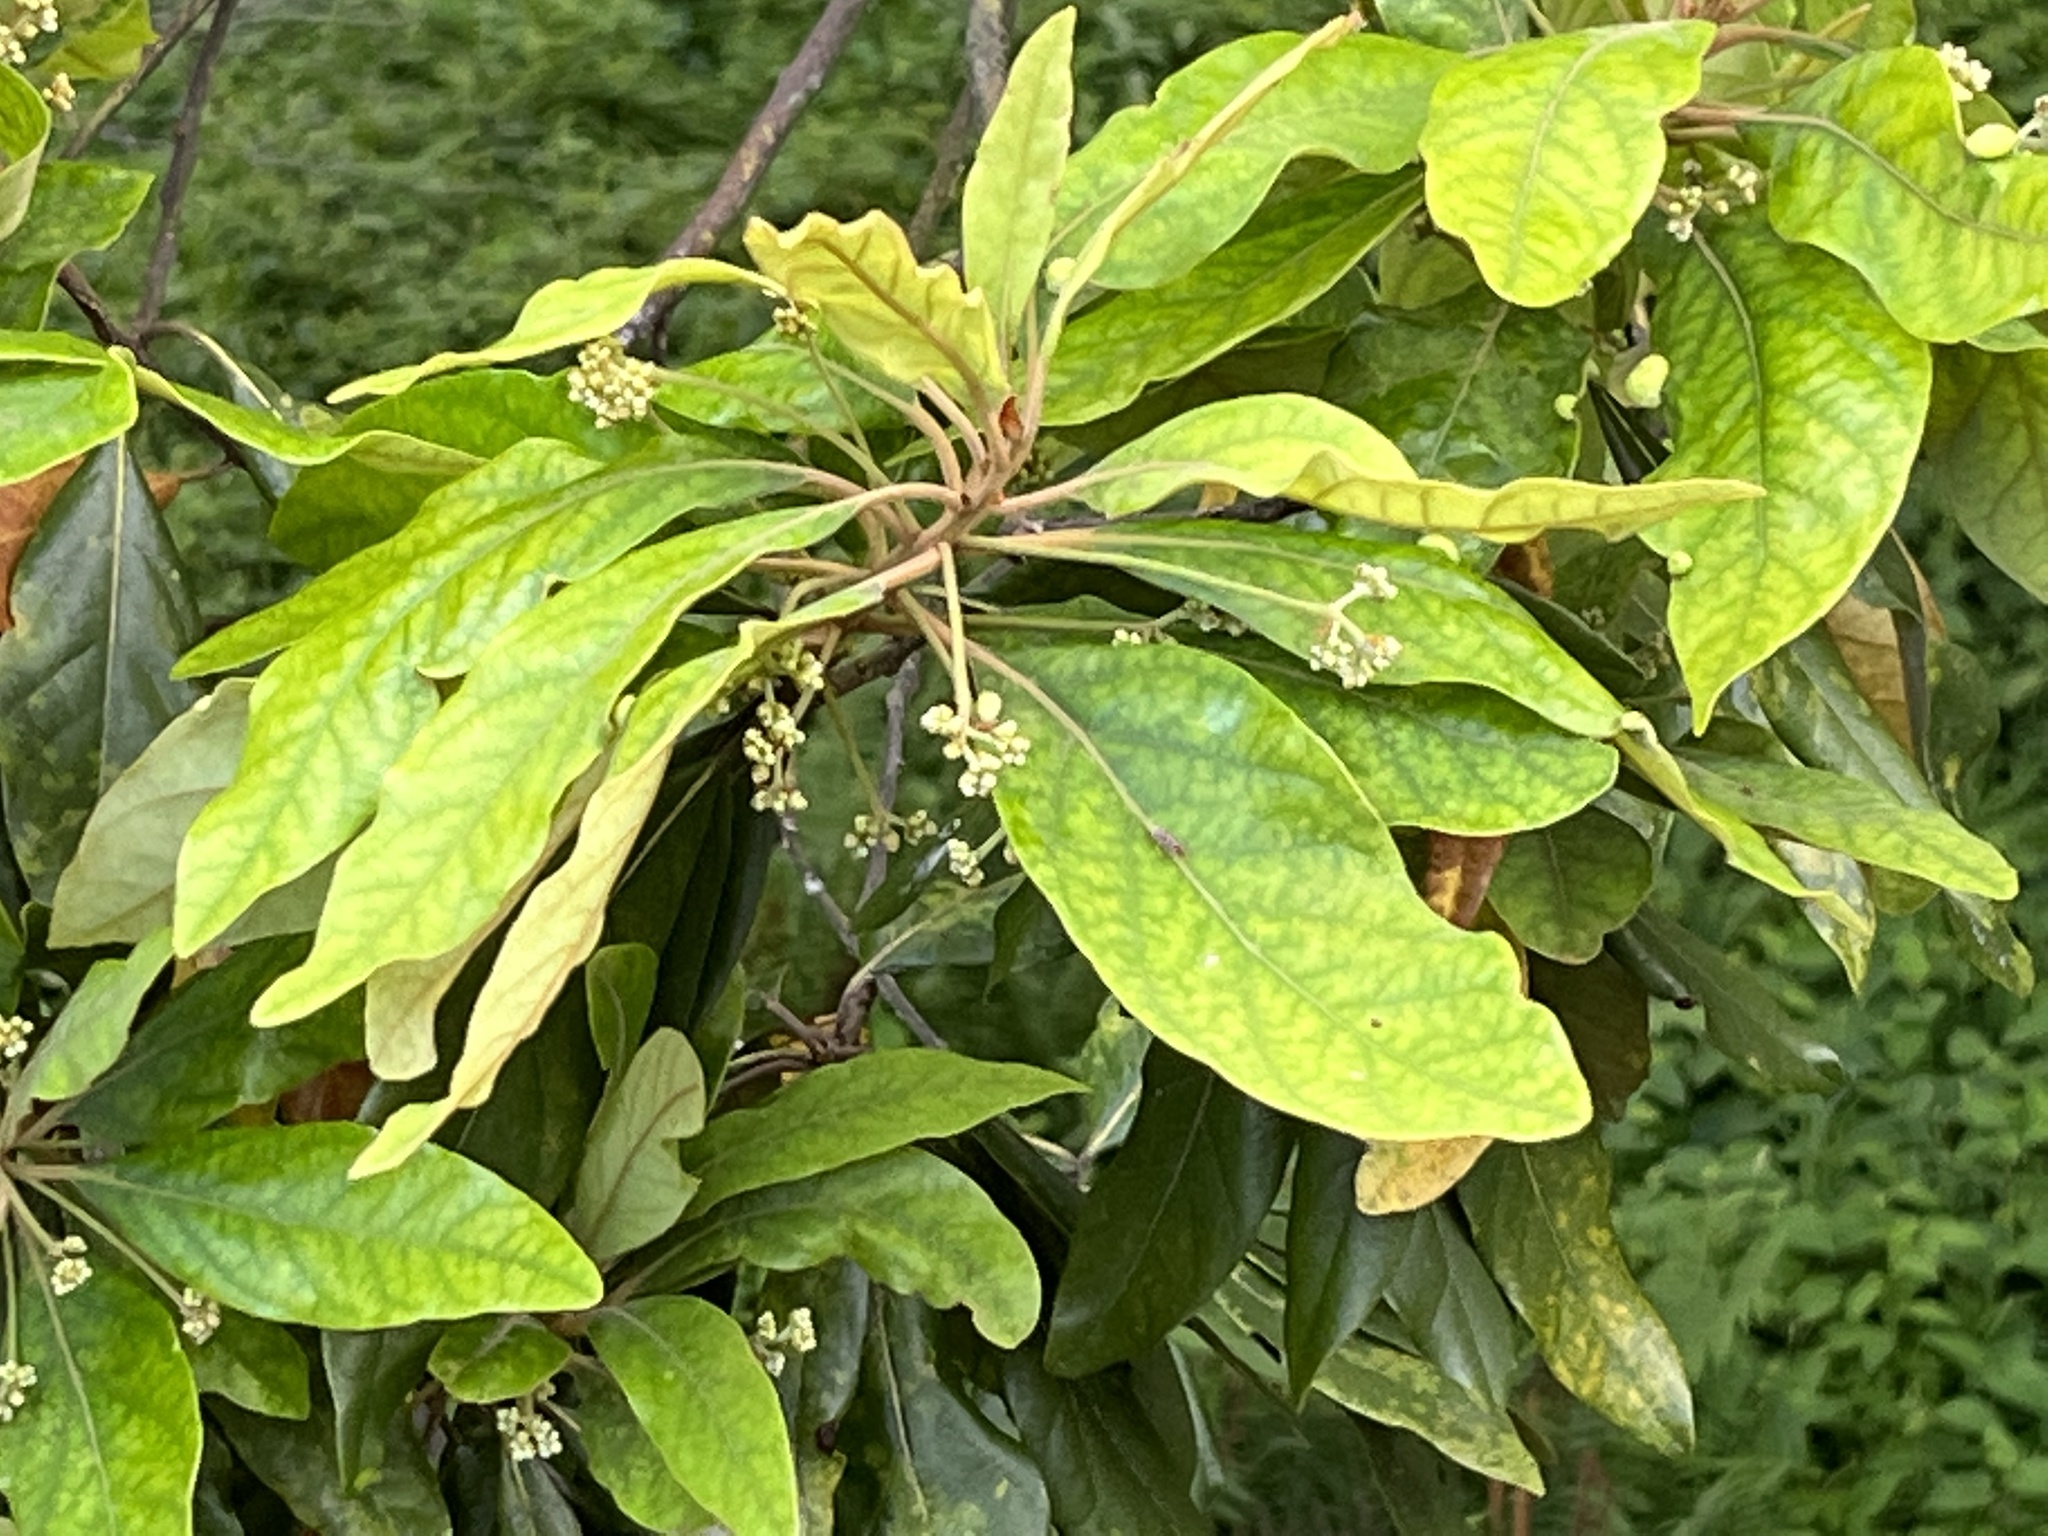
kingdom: Plantae
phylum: Tracheophyta
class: Magnoliopsida
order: Laurales
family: Lauraceae
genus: Persea
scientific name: Persea palustris
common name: Swampbay
